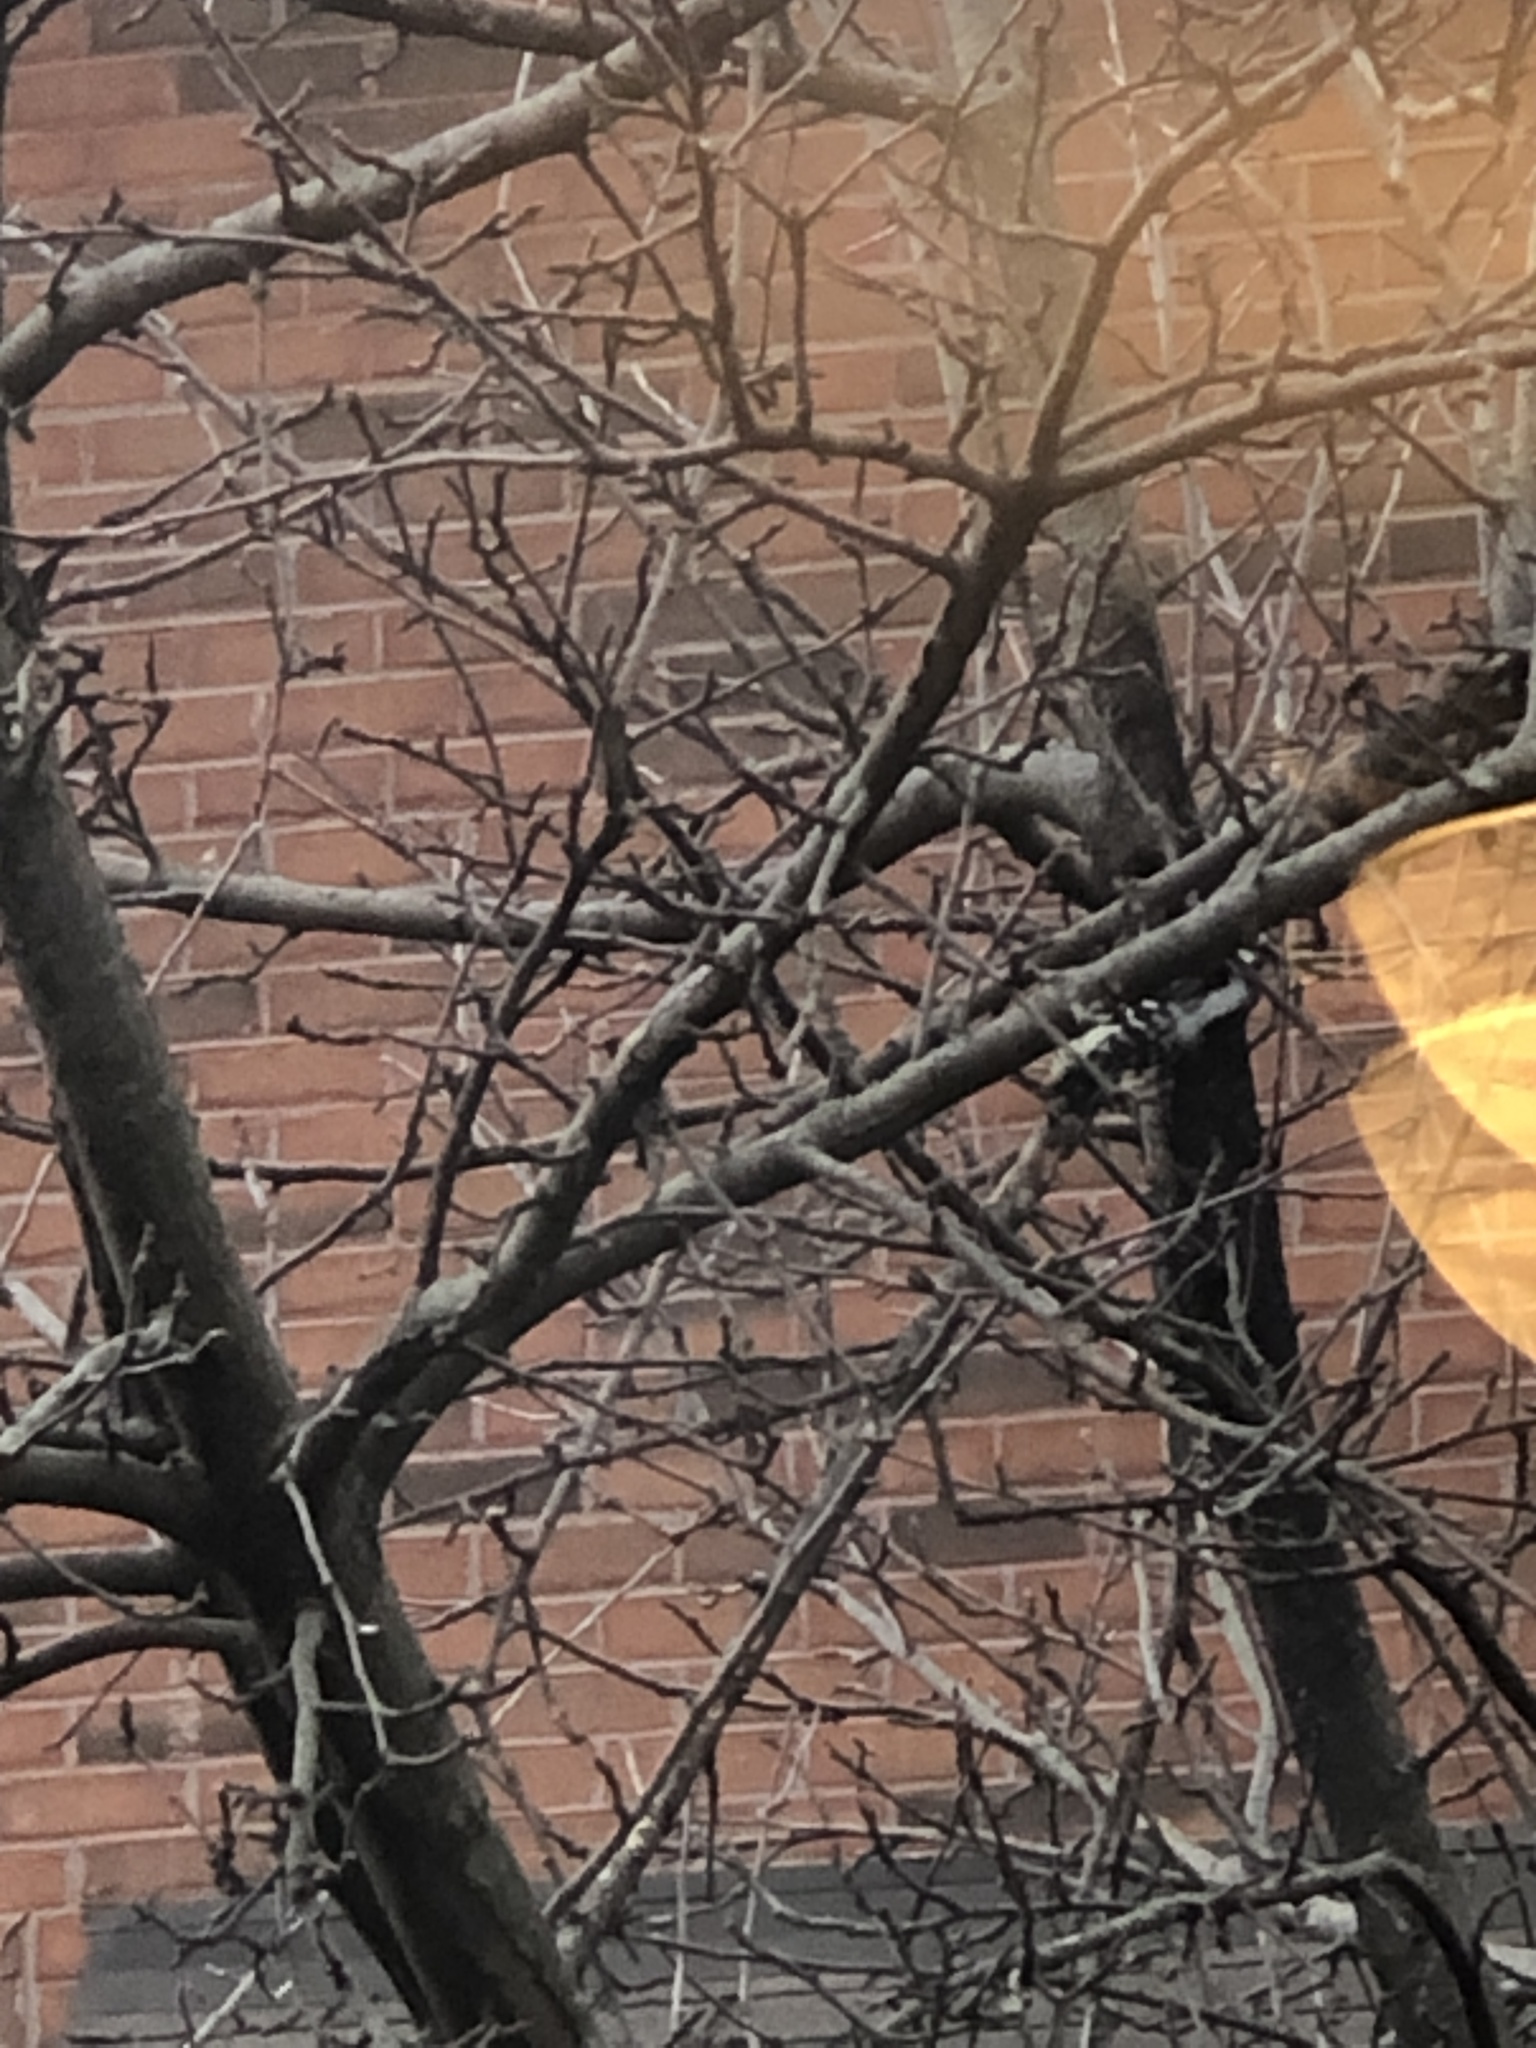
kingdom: Animalia
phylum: Chordata
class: Aves
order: Piciformes
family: Picidae
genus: Dryobates
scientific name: Dryobates pubescens
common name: Downy woodpecker
